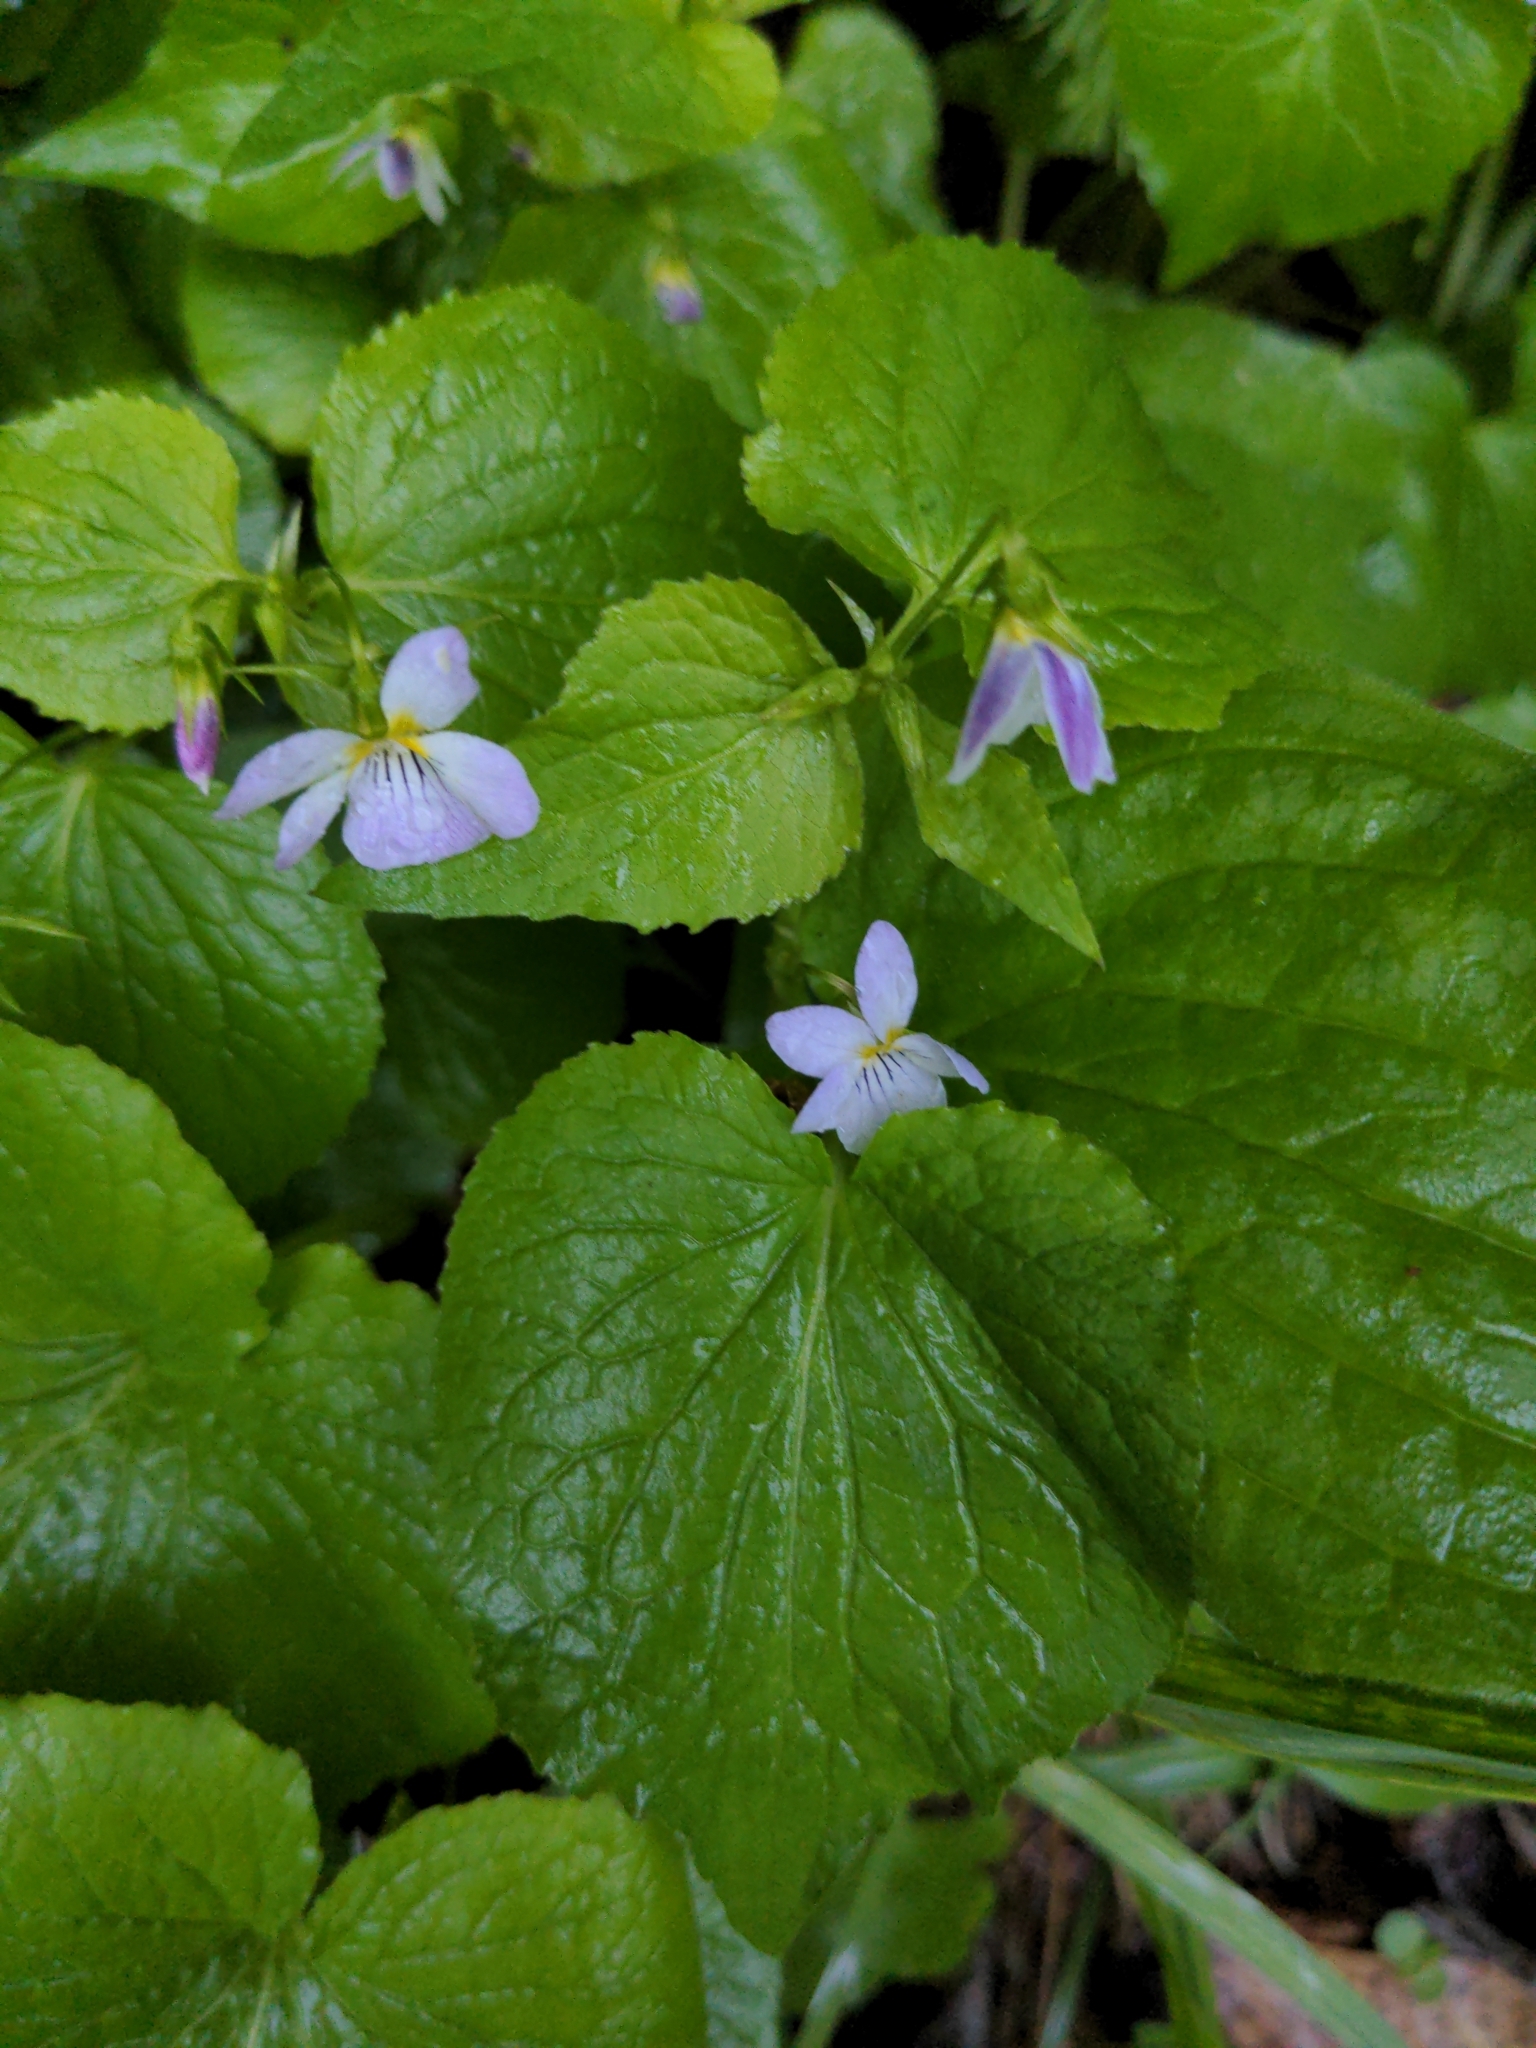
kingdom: Plantae
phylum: Tracheophyta
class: Magnoliopsida
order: Malpighiales
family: Violaceae
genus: Viola
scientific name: Viola canadensis
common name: Canada violet
